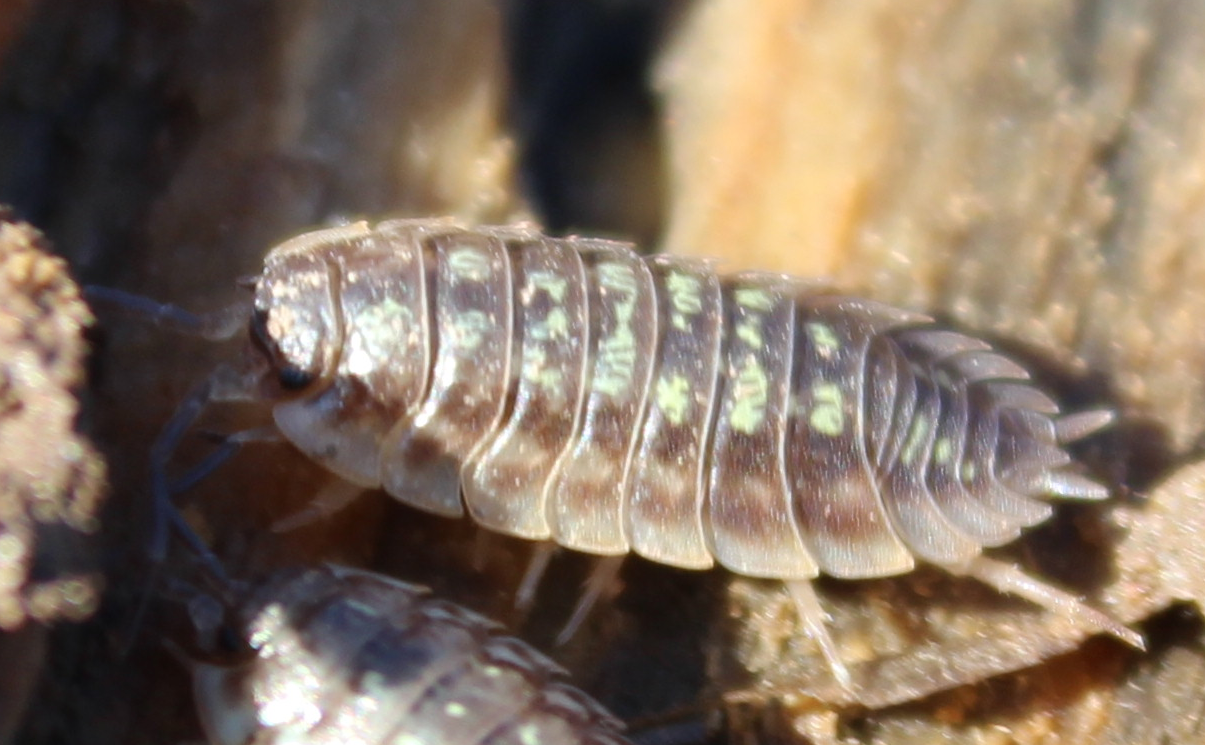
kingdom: Animalia
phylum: Arthropoda
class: Malacostraca
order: Isopoda
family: Oniscidae
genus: Oniscus
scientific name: Oniscus asellus
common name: Common shiny woodlouse
